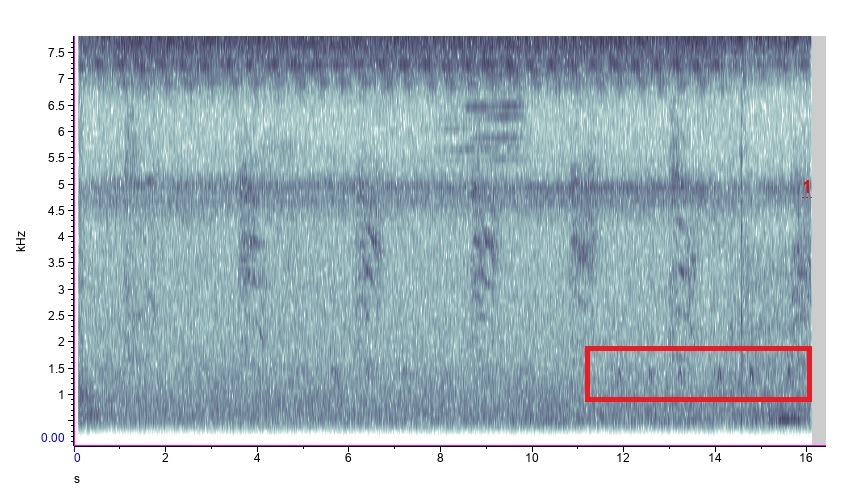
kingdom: Animalia
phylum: Chordata
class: Aves
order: Passeriformes
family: Corvidae
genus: Corvus
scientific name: Corvus brachyrhynchos
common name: American crow
